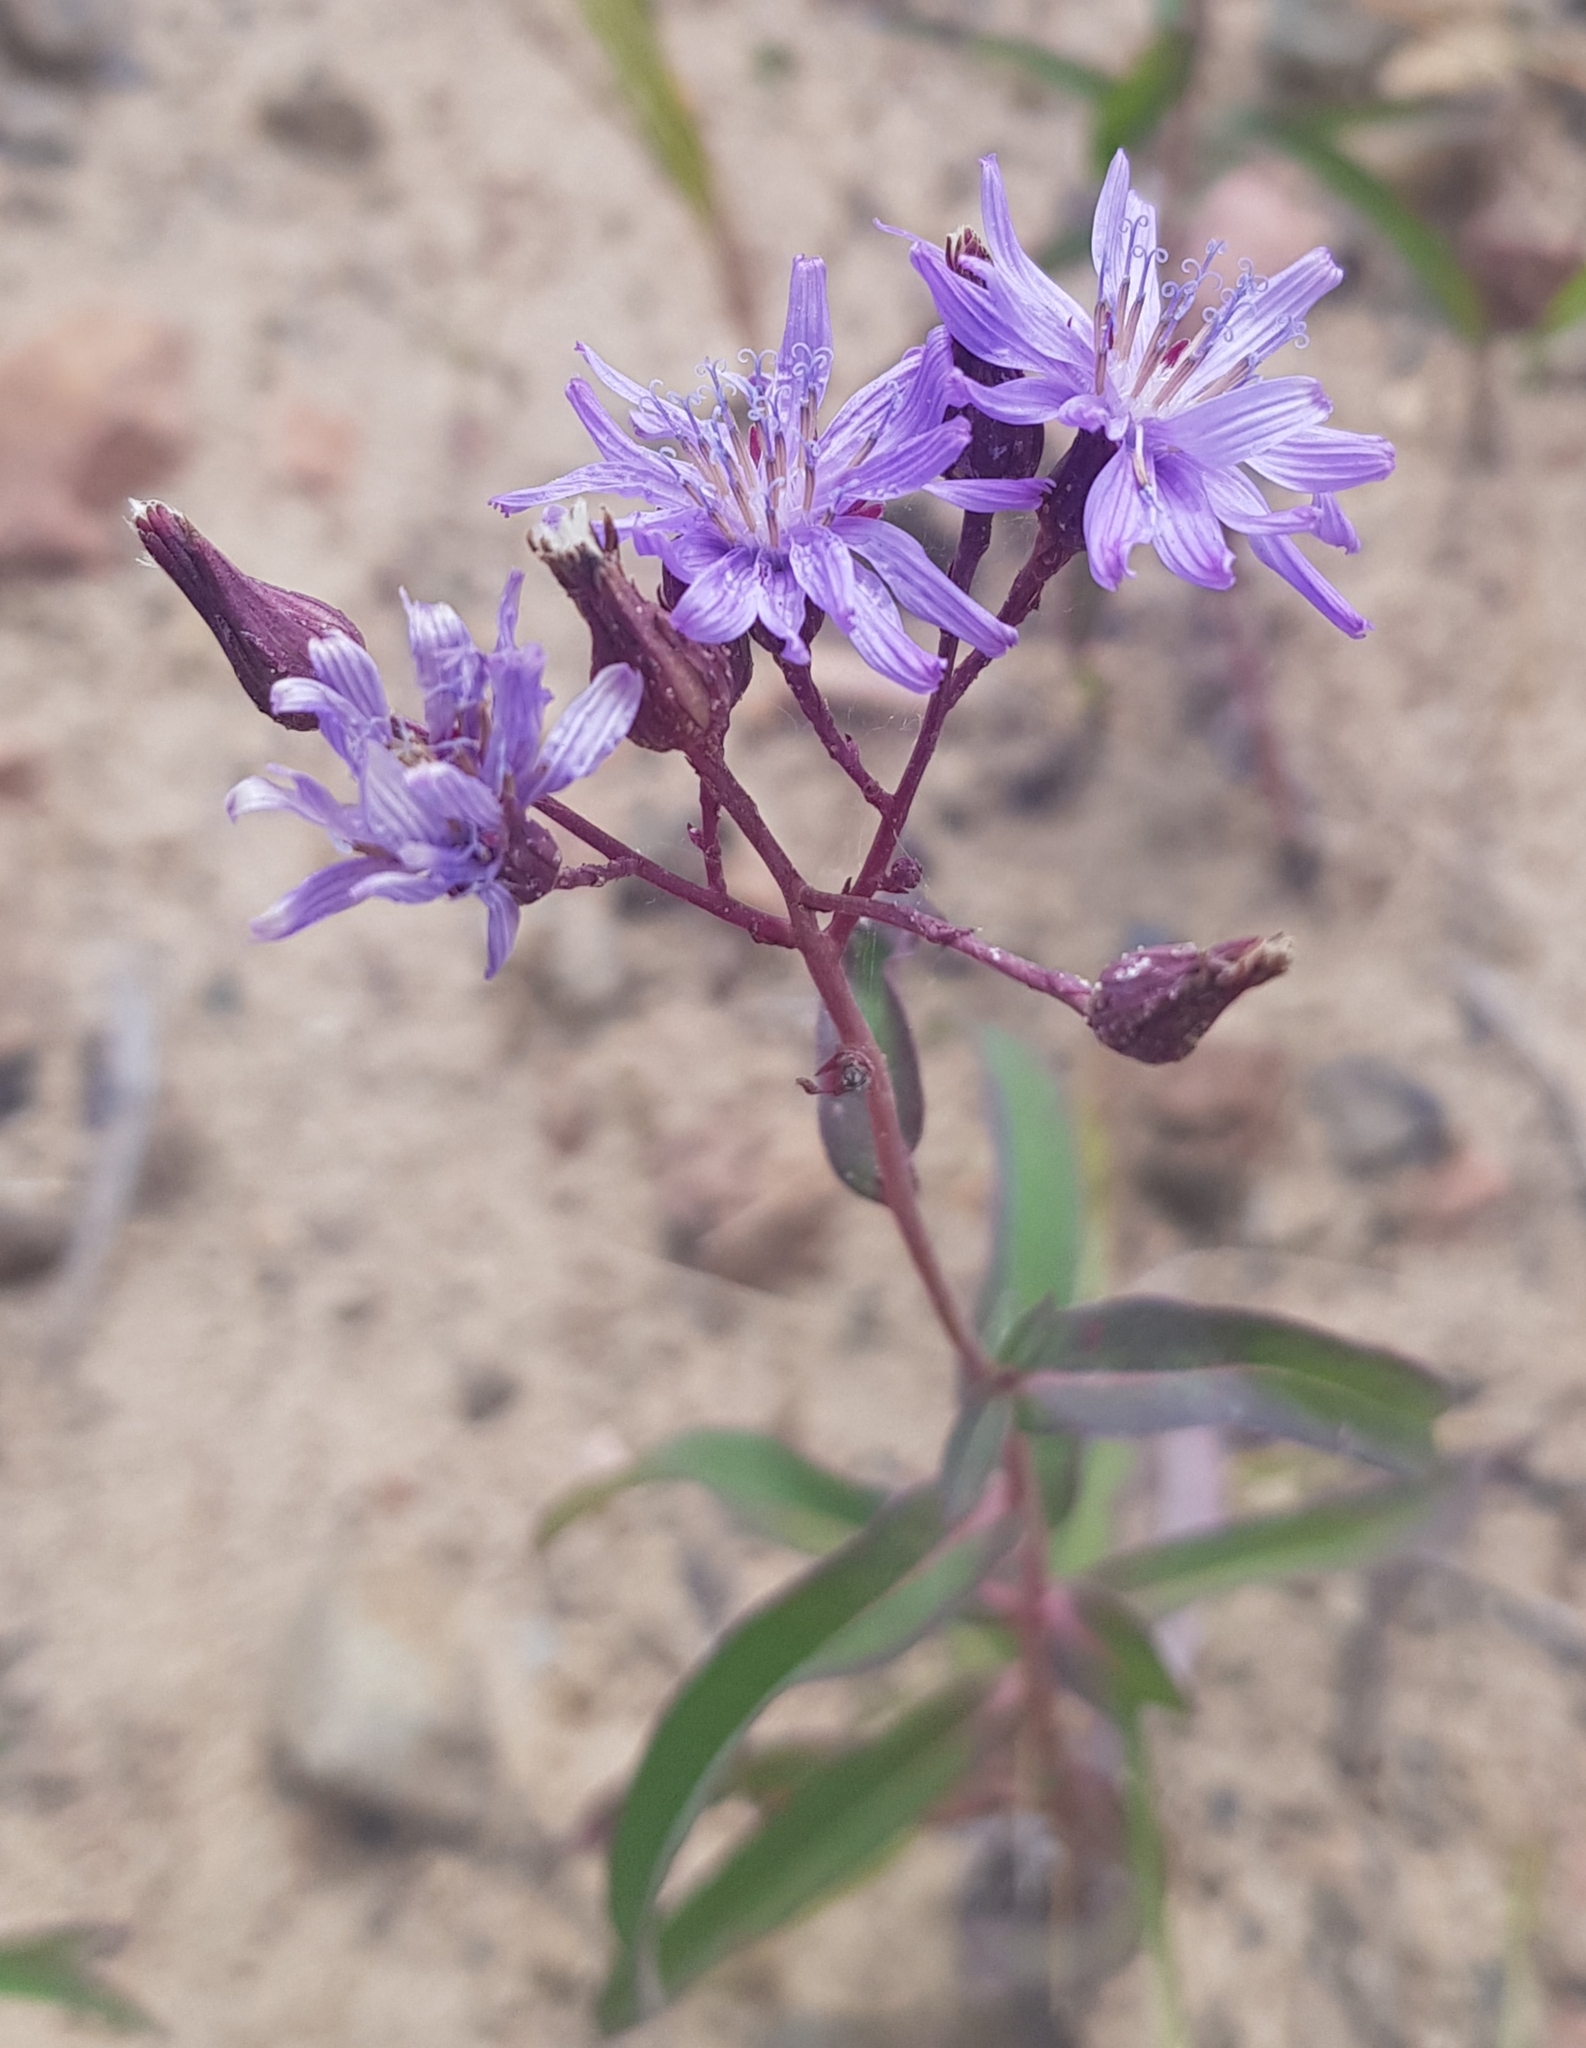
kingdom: Plantae
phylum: Tracheophyta
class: Magnoliopsida
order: Asterales
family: Asteraceae
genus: Lactuca
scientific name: Lactuca sibirica
